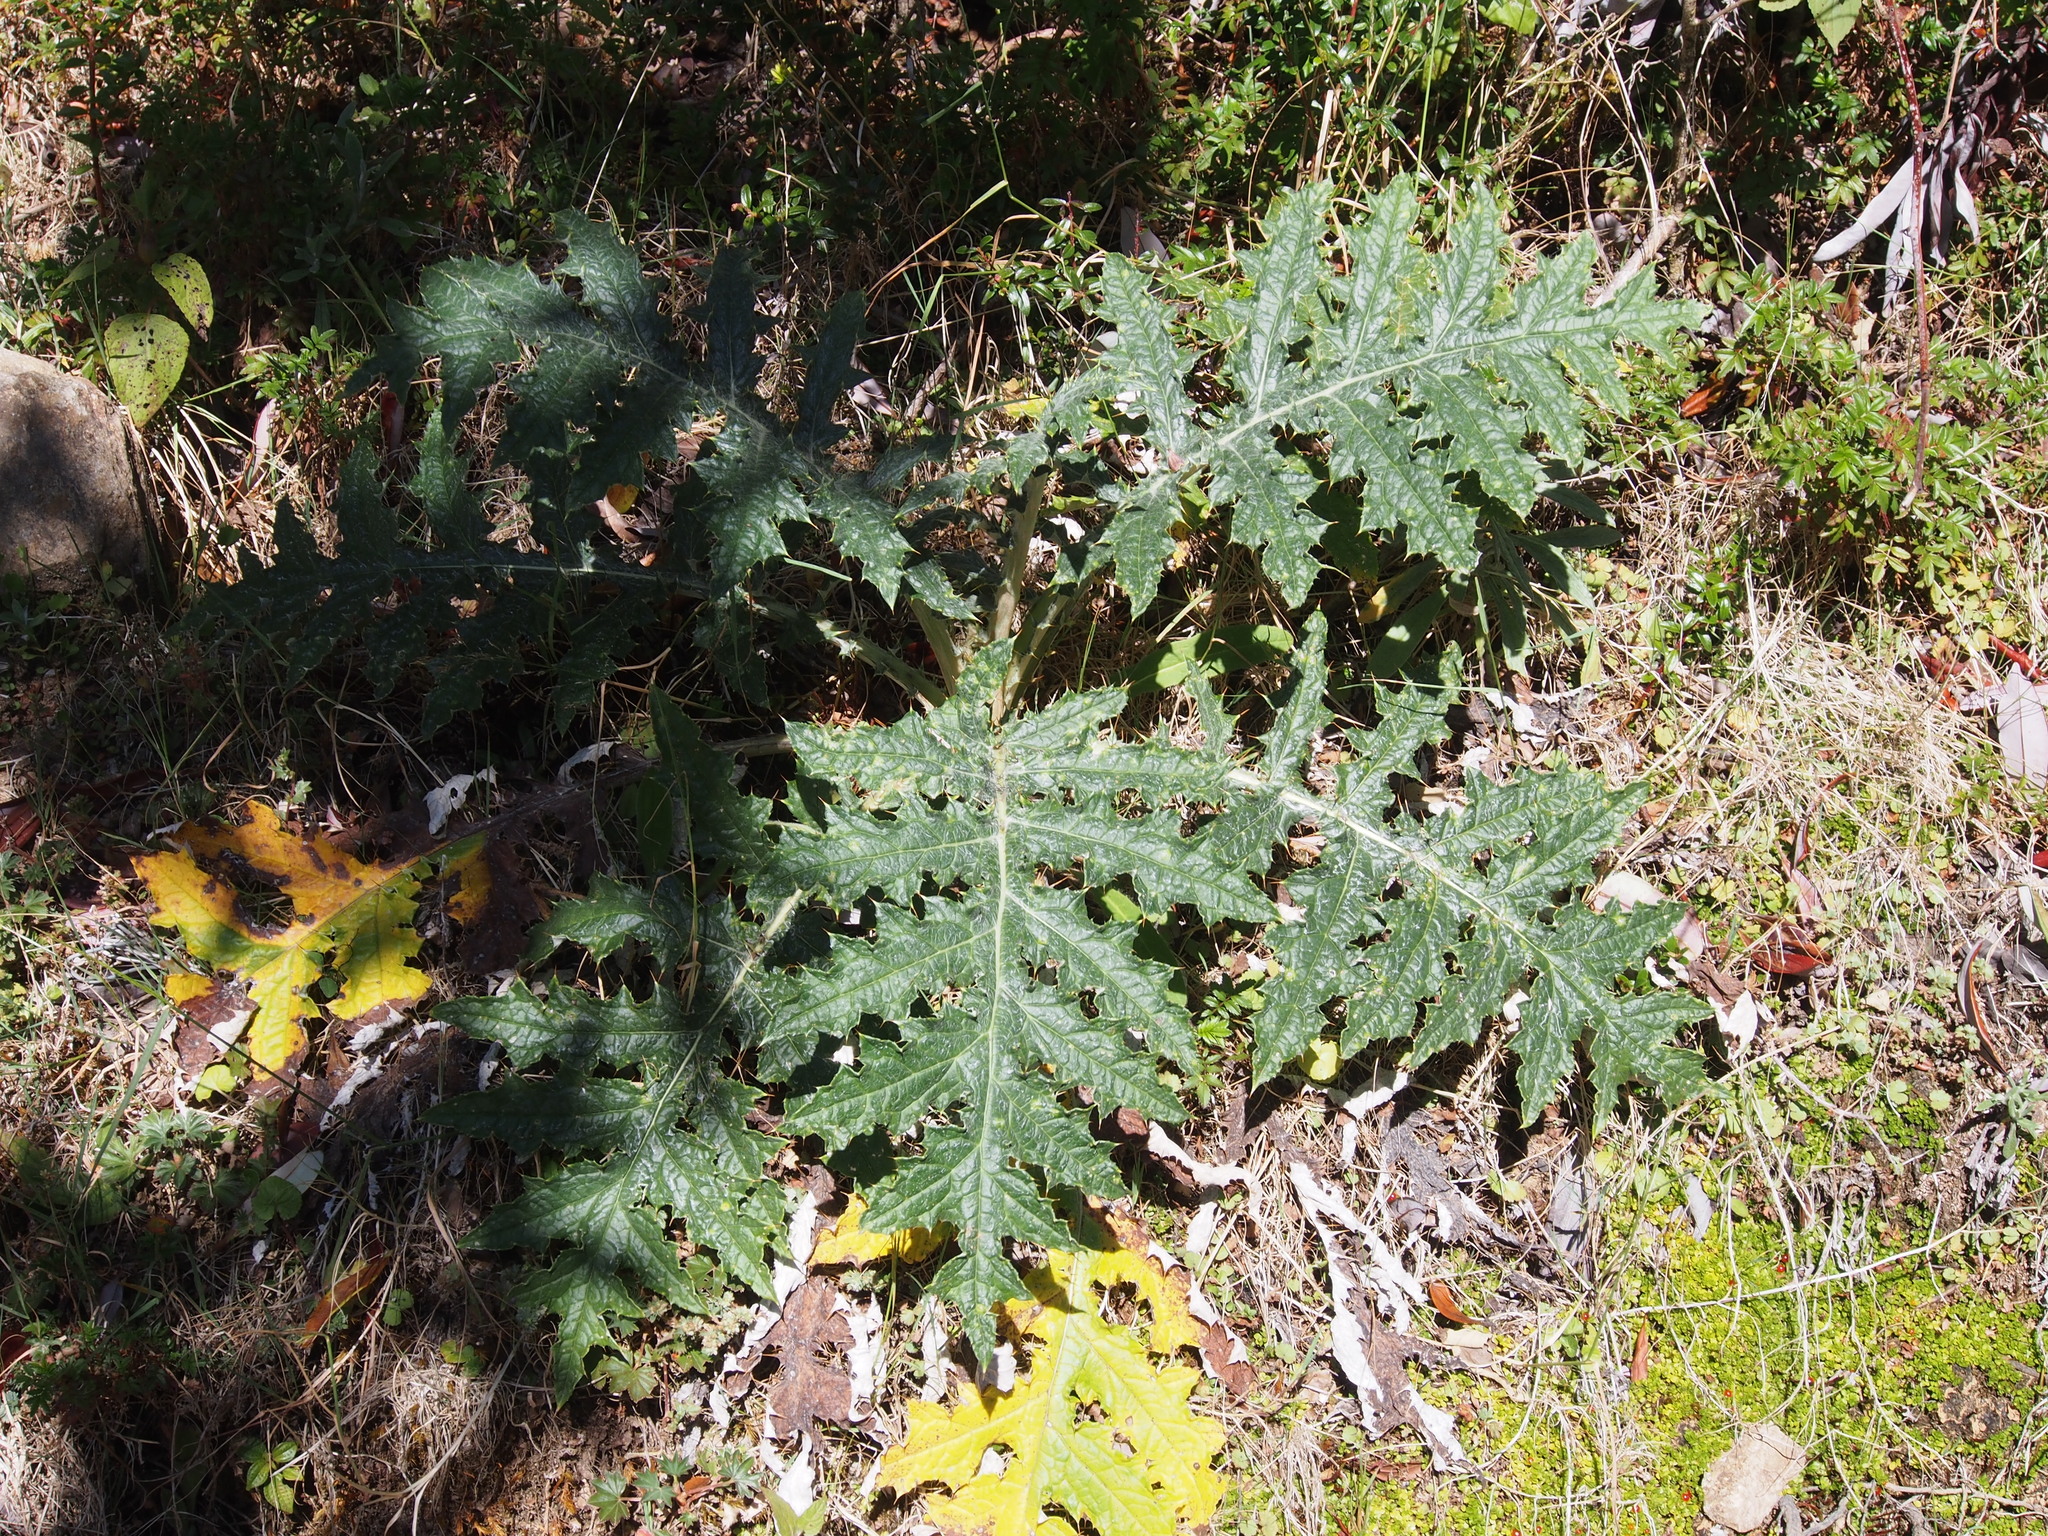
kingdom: Plantae
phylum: Tracheophyta
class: Magnoliopsida
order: Asterales
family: Asteraceae
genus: Cirsium
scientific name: Cirsium subcoriaceum
